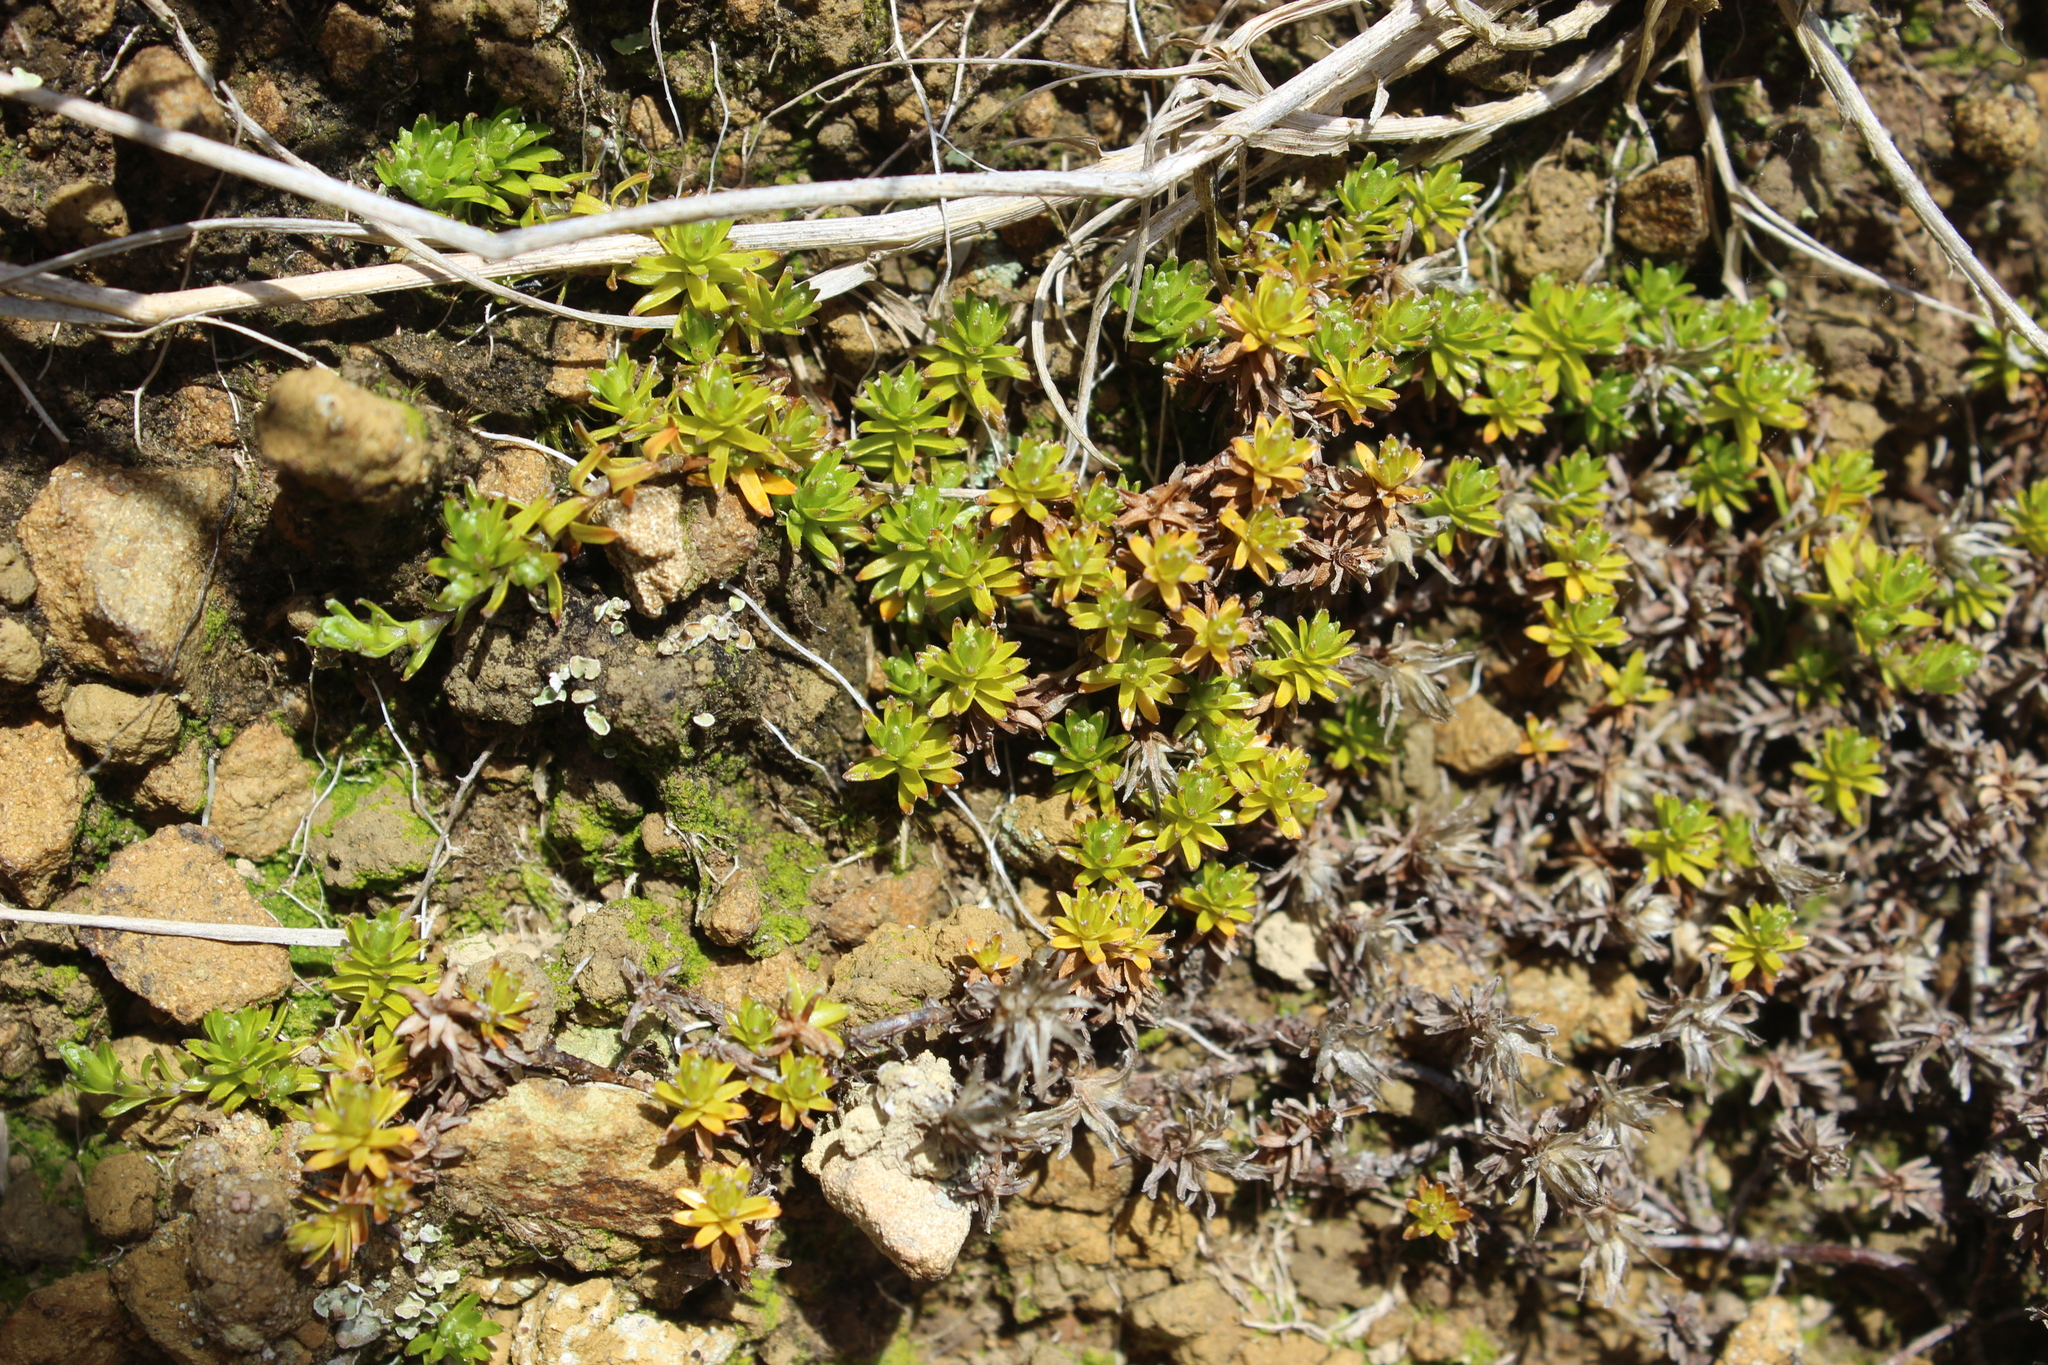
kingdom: Plantae
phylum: Tracheophyta
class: Magnoliopsida
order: Asterales
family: Asteraceae
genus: Raoulia
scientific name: Raoulia glabra
